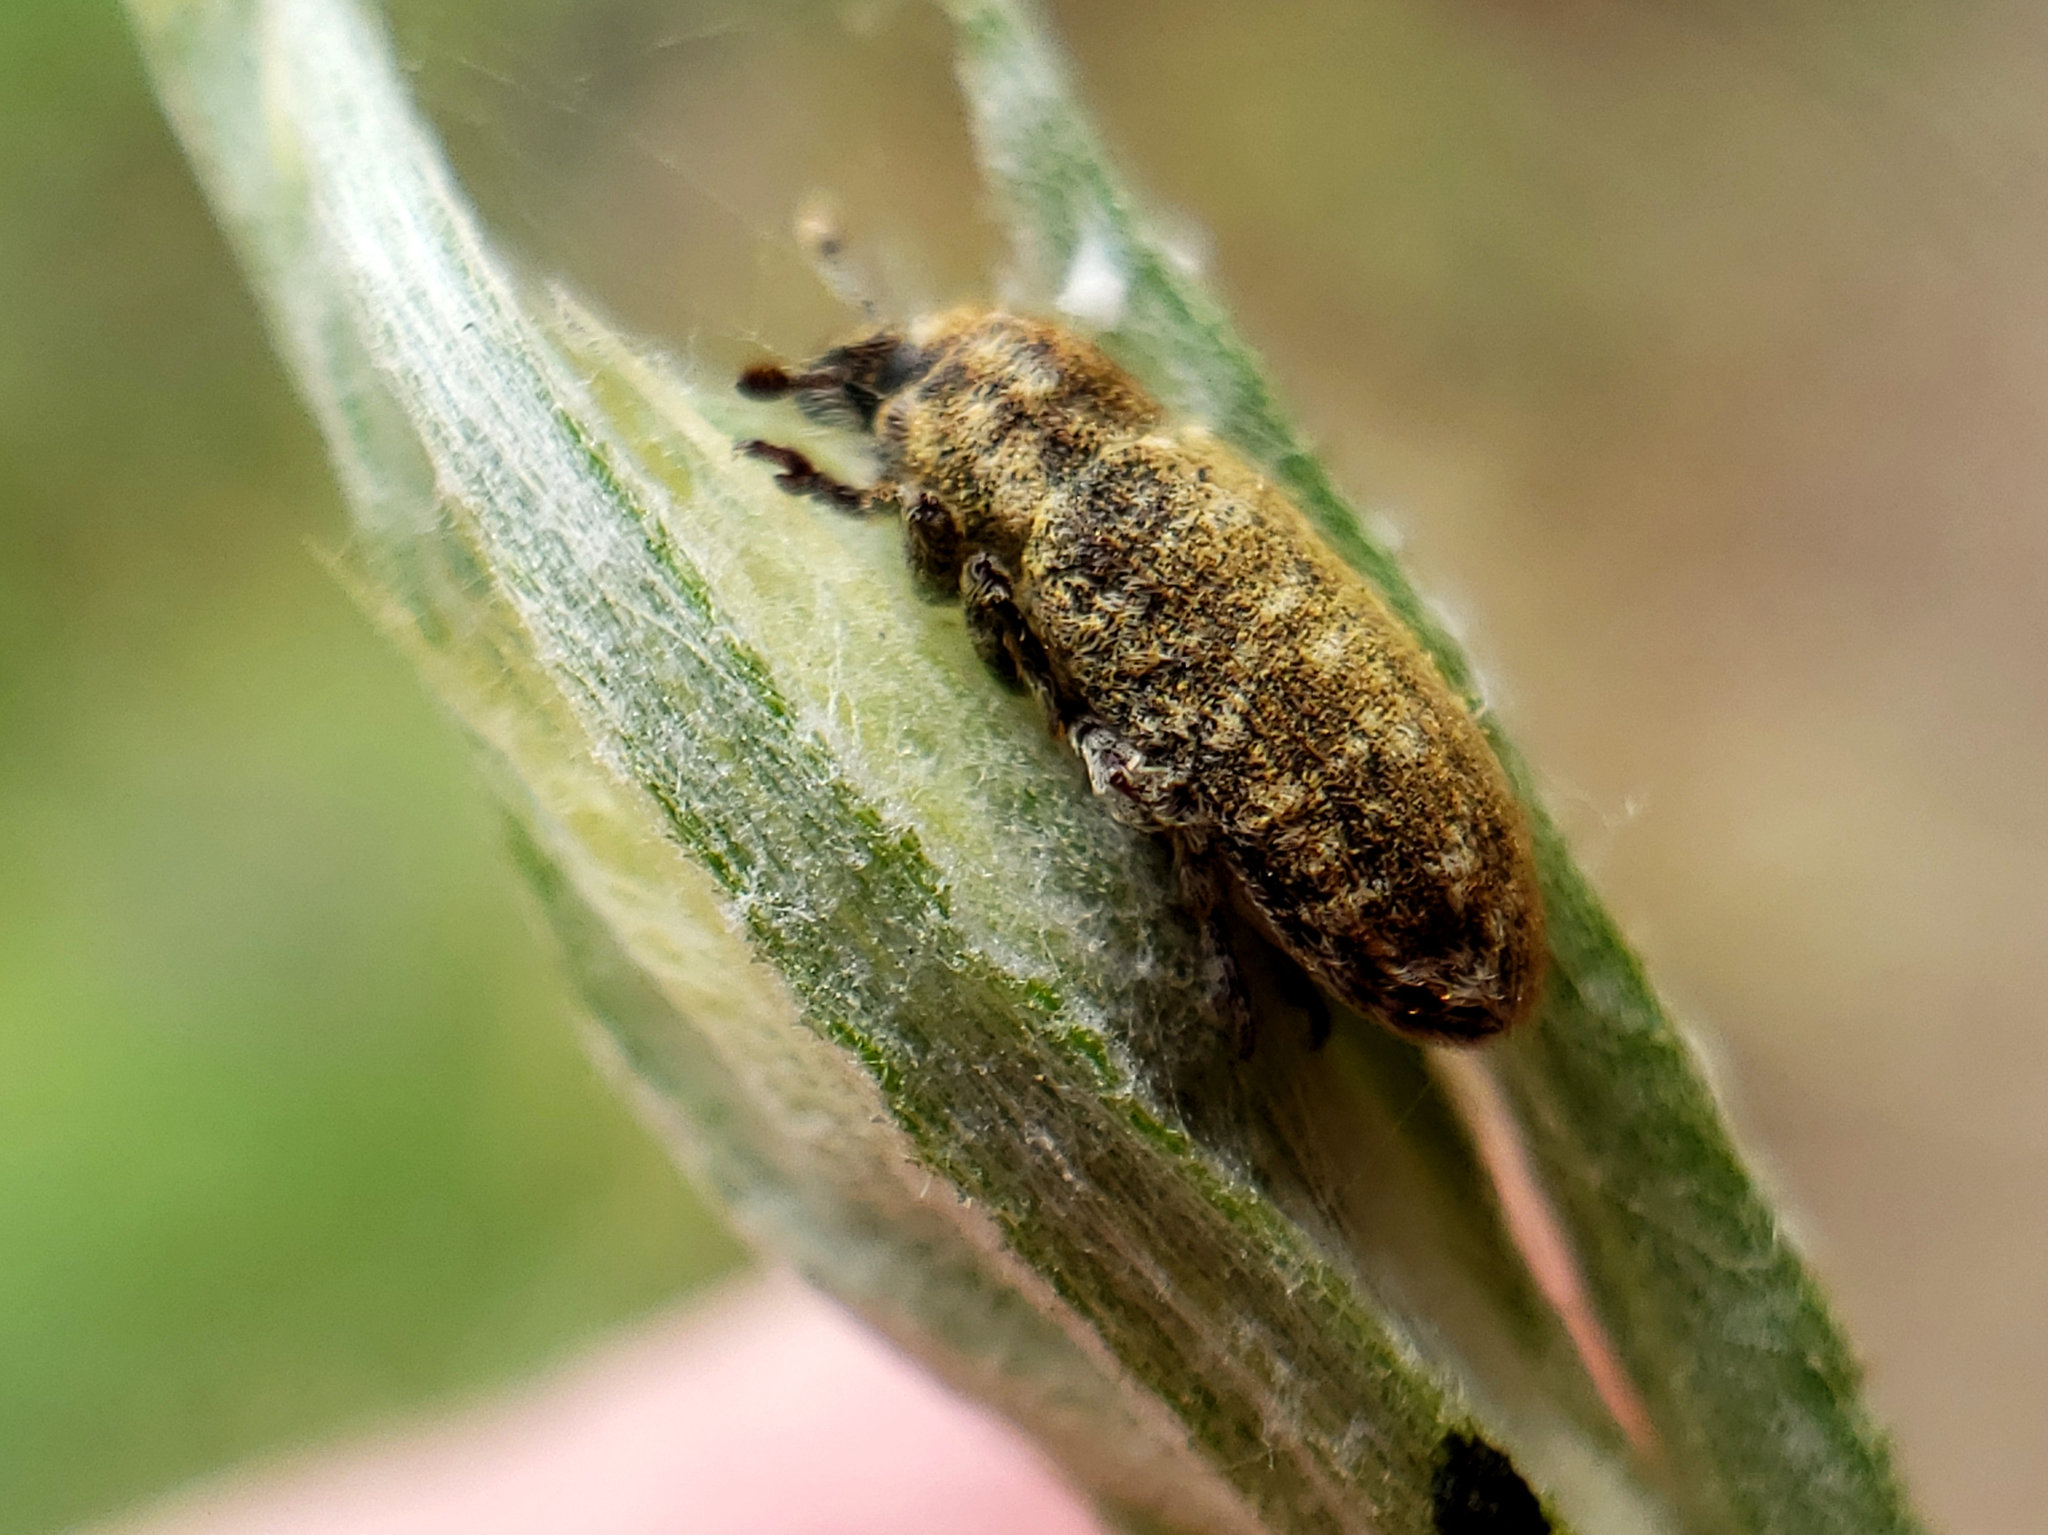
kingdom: Animalia
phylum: Arthropoda
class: Insecta
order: Coleoptera
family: Curculionidae
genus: Rhinocyllus
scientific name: Rhinocyllus conicus
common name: Weevil
